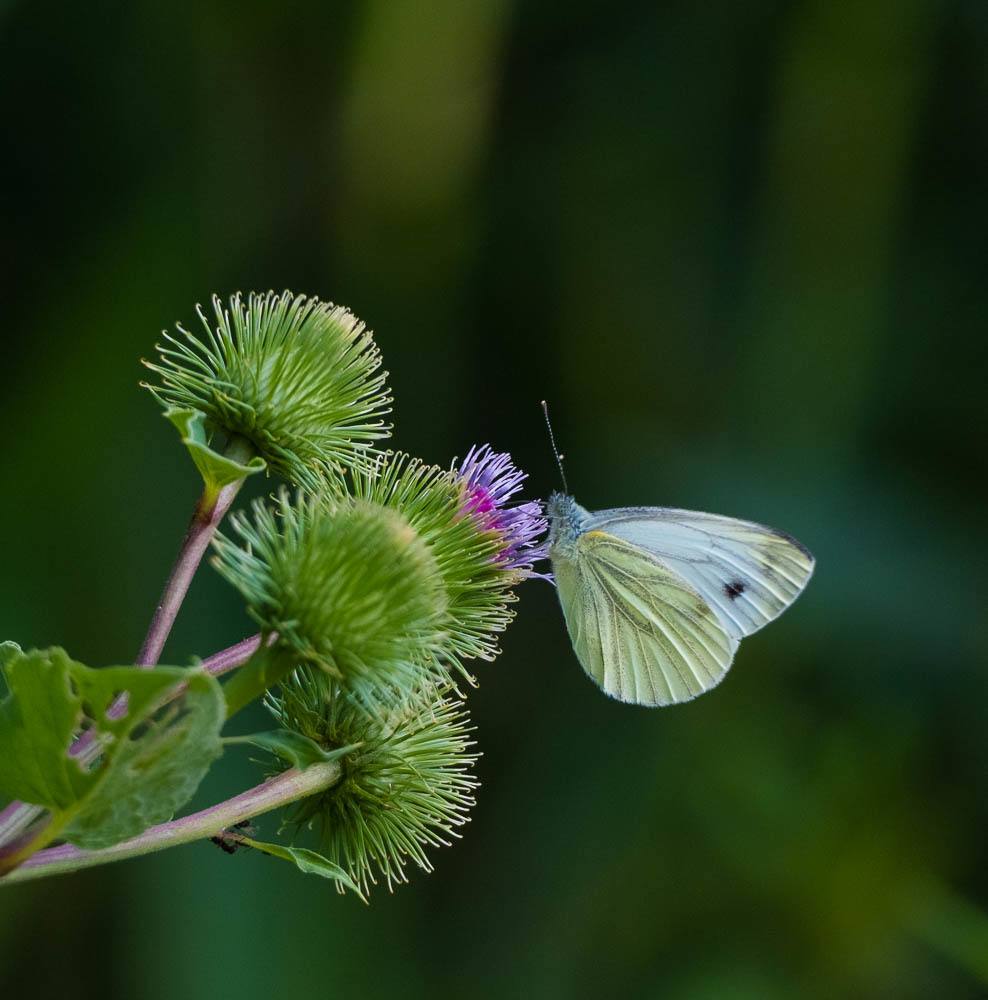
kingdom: Animalia
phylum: Arthropoda
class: Insecta
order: Lepidoptera
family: Pieridae
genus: Pieris
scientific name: Pieris napi
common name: Green-veined white
